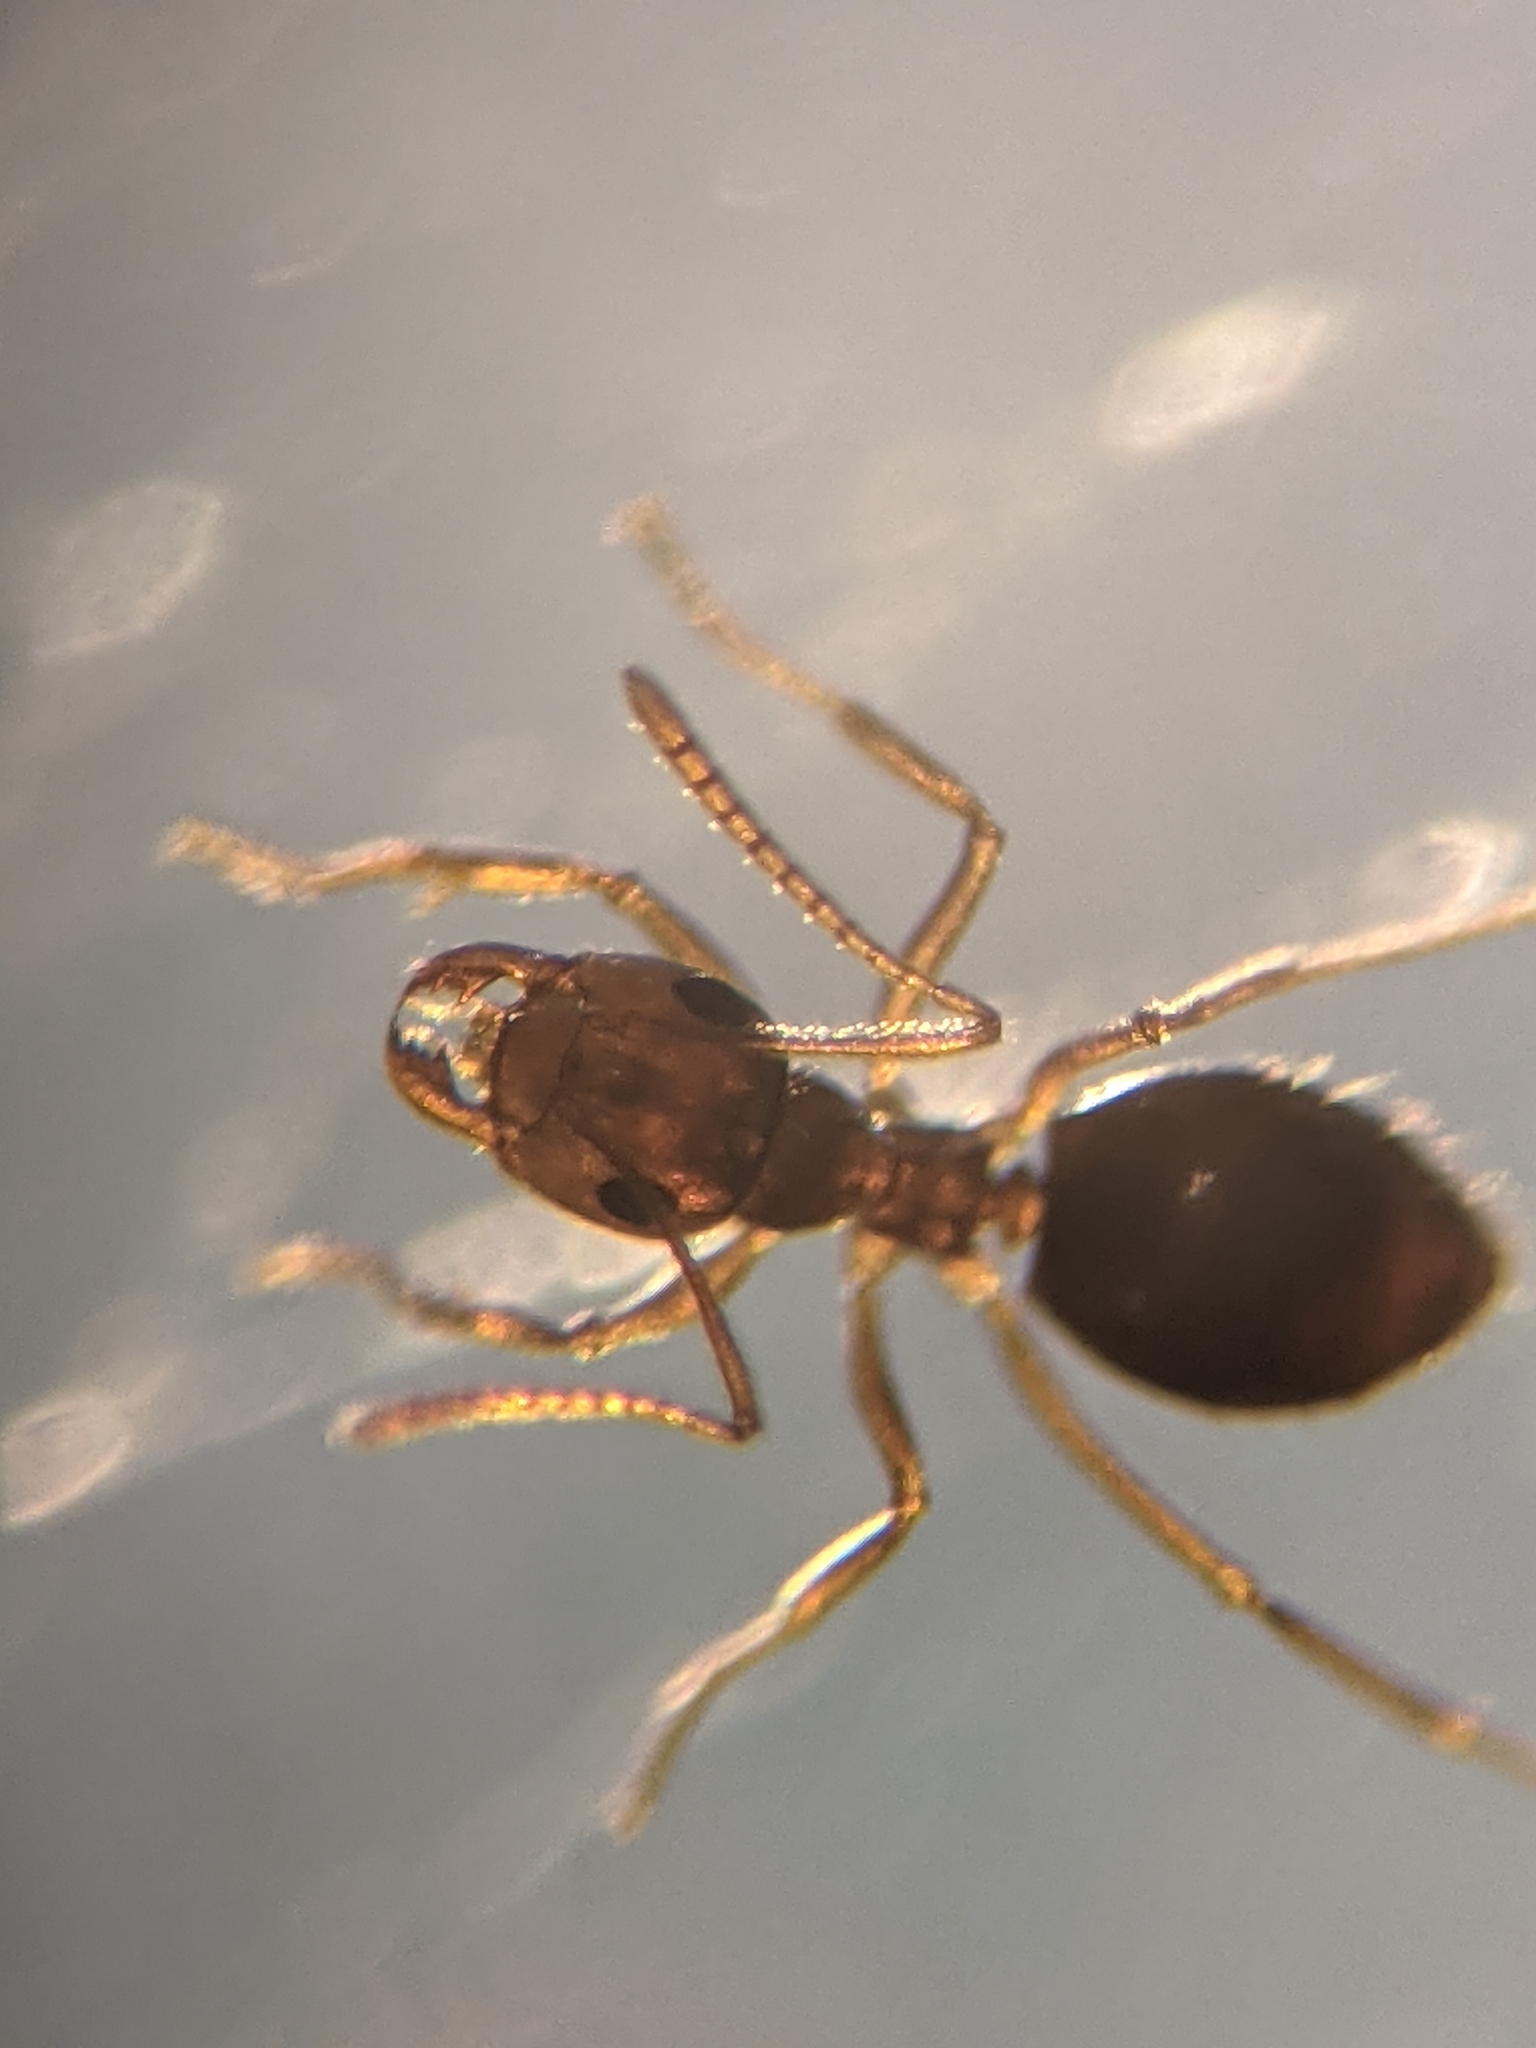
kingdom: Animalia
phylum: Arthropoda
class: Insecta
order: Hymenoptera
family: Formicidae
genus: Prenolepis
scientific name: Prenolepis imparis
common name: Small honey ant
